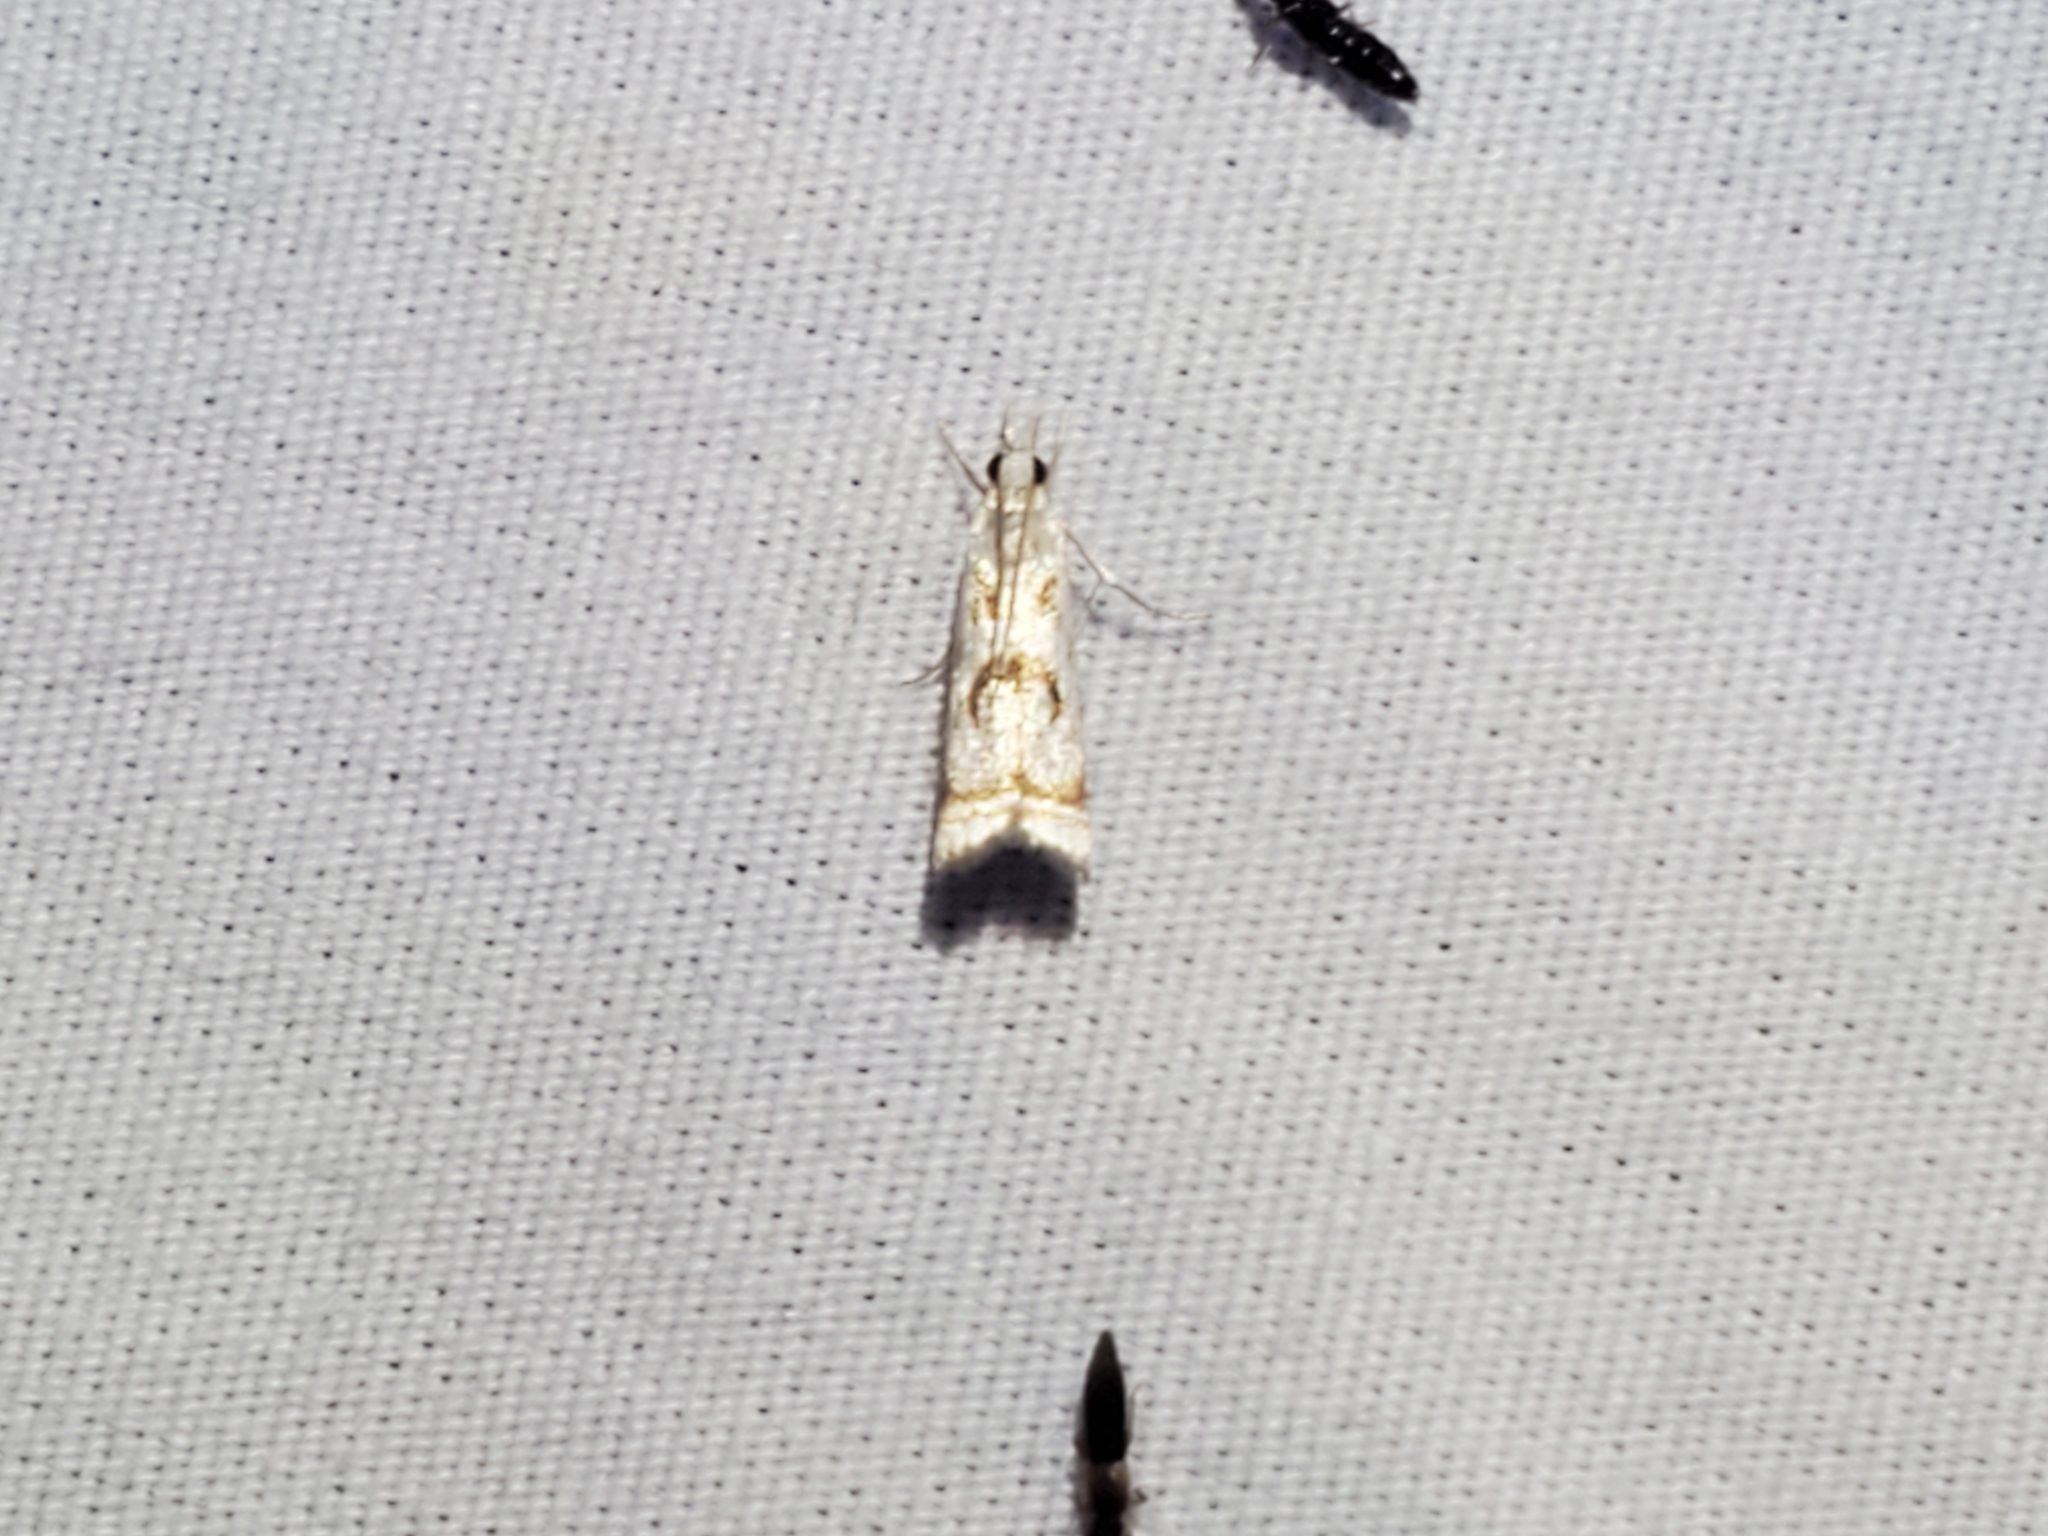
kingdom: Animalia
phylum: Arthropoda
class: Insecta
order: Lepidoptera
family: Crambidae
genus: Microcrambus
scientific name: Microcrambus elegans
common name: Elegant grass-veneer
